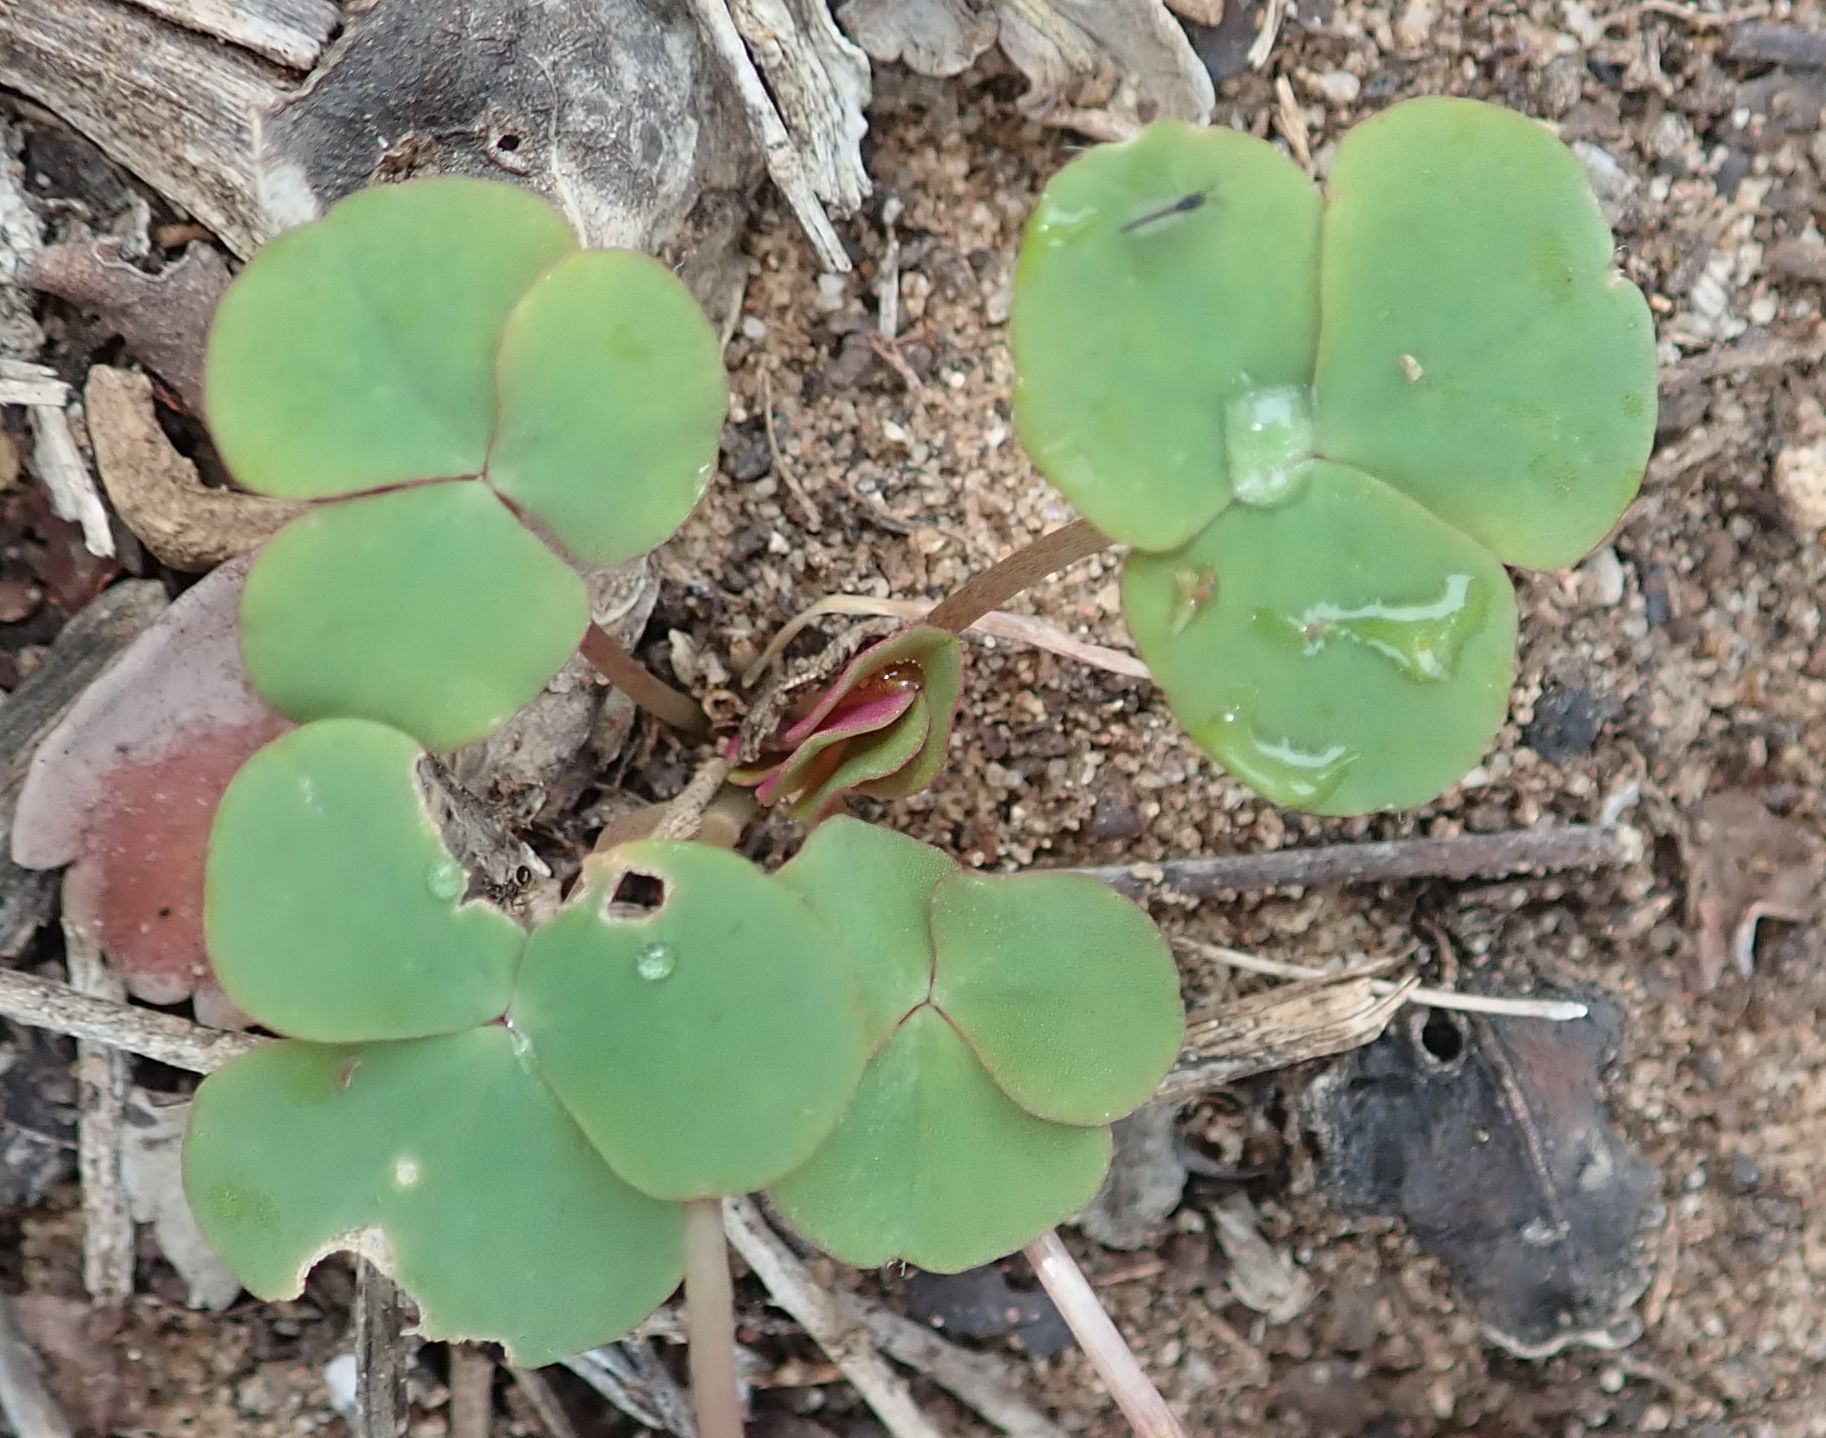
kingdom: Plantae
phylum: Tracheophyta
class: Magnoliopsida
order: Oxalidales
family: Oxalidaceae
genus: Oxalis
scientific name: Oxalis depressa
